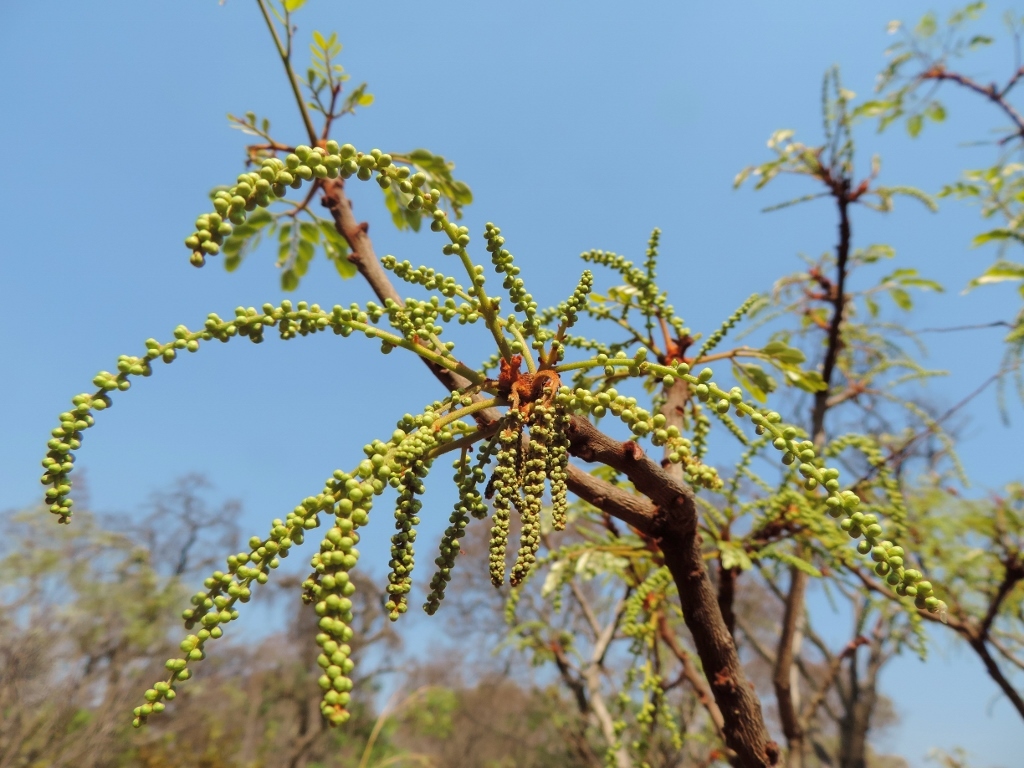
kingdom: Plantae
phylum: Tracheophyta
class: Magnoliopsida
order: Fabales
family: Fabaceae
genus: Burkea
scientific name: Burkea africana
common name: Mkalati tree
